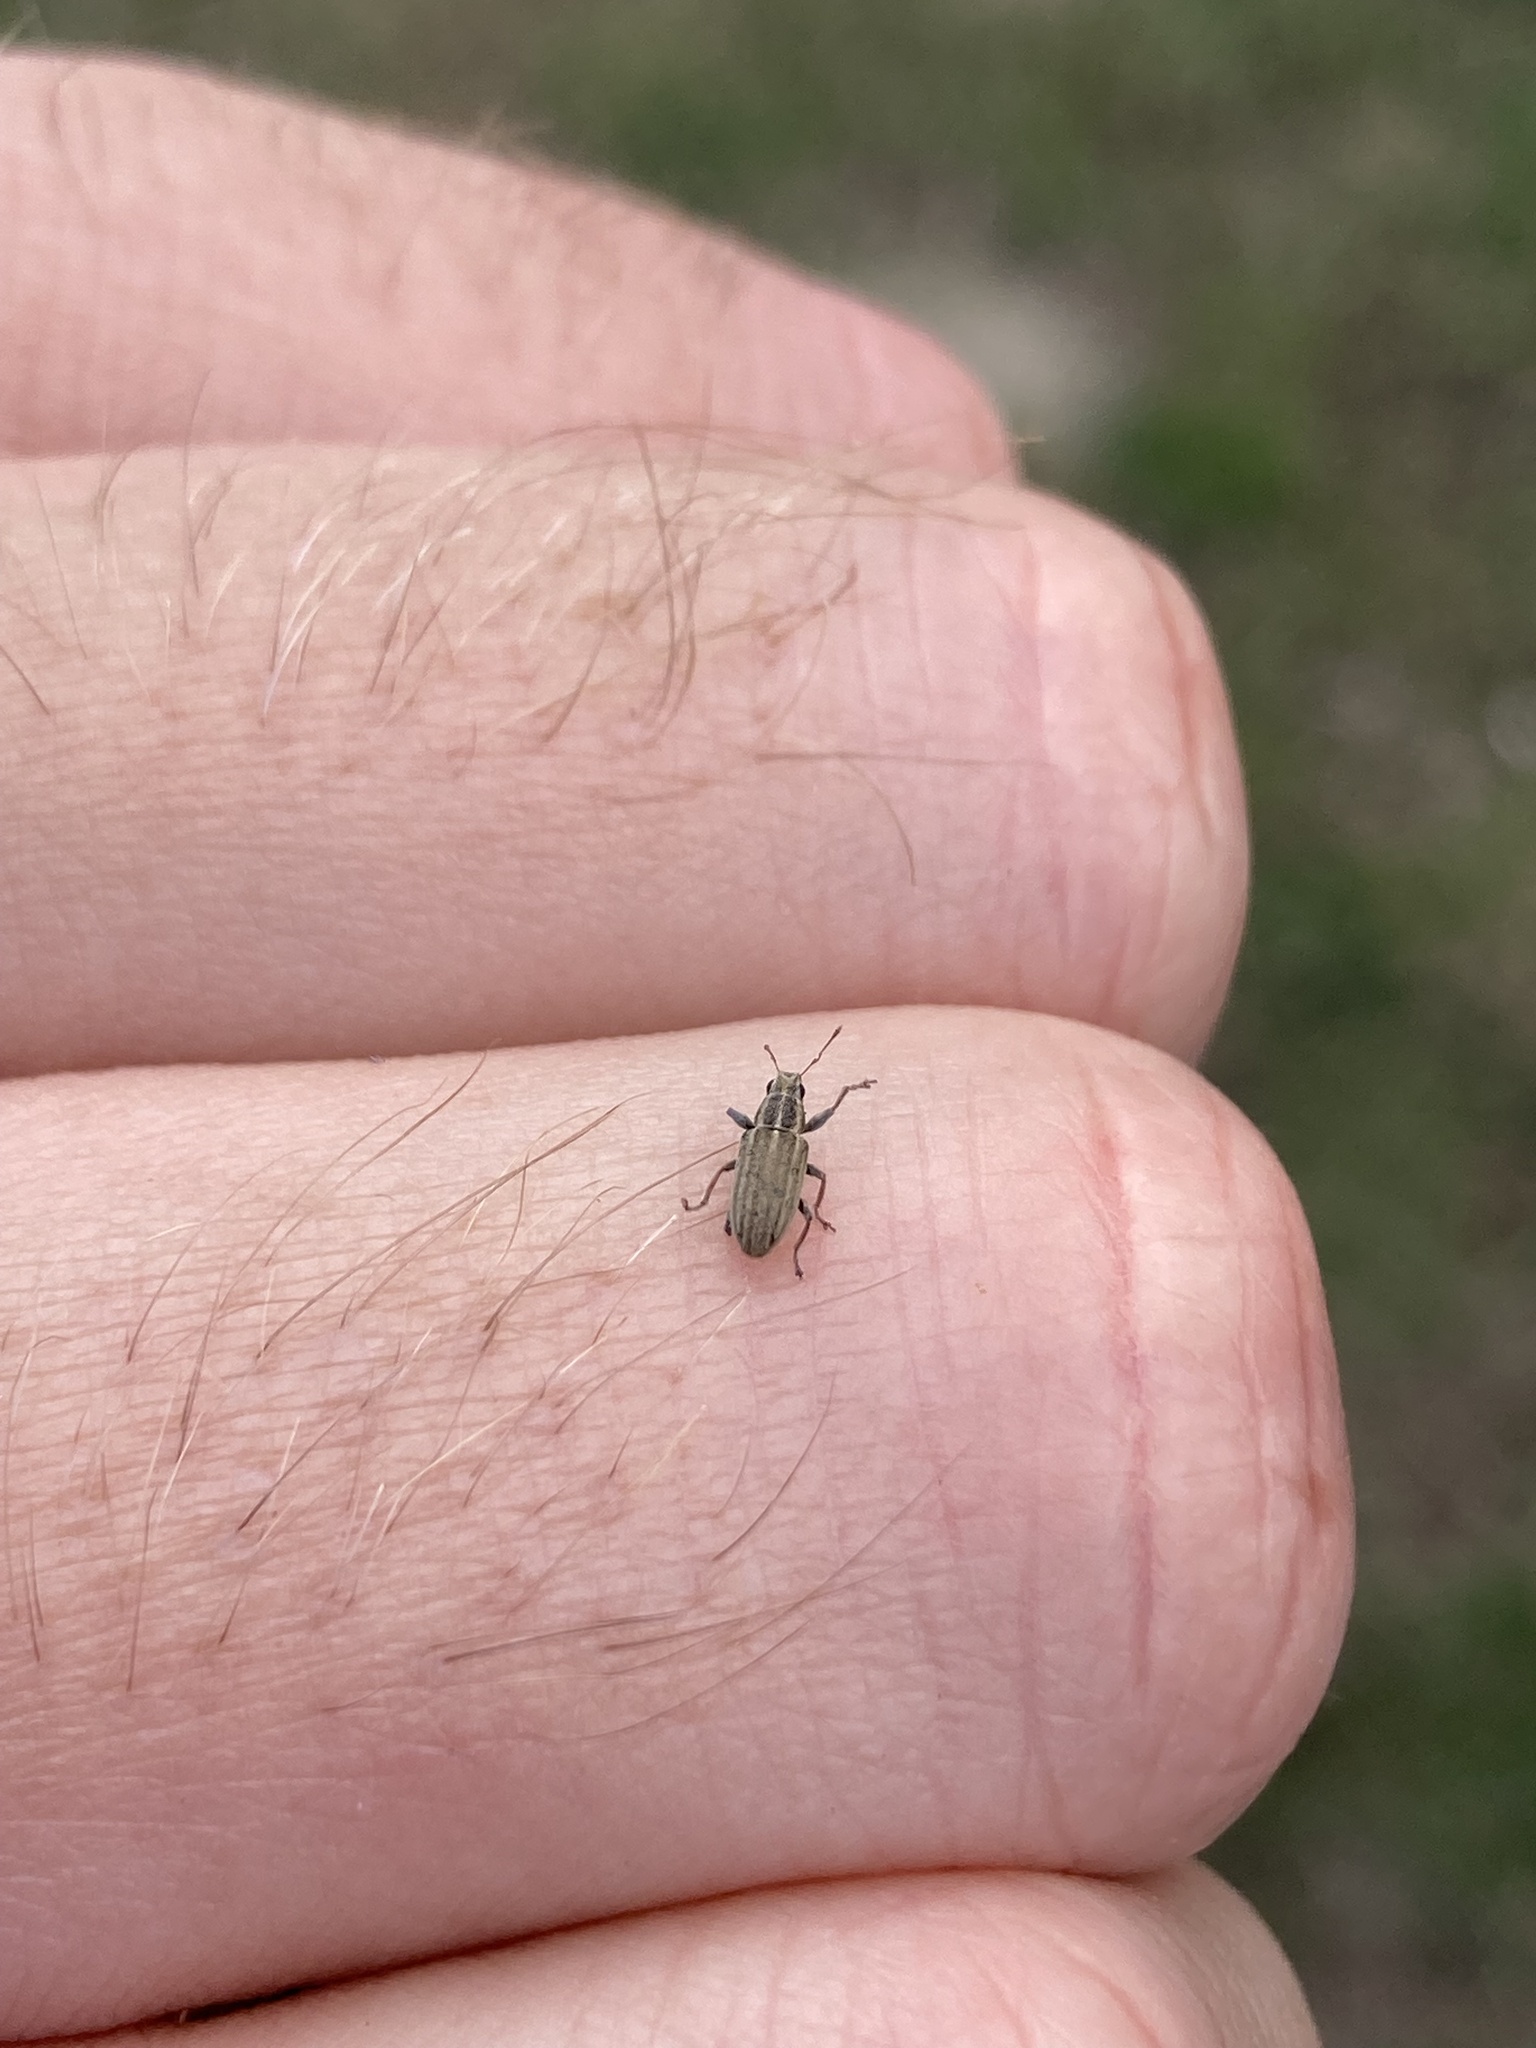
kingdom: Animalia
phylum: Arthropoda
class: Insecta
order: Coleoptera
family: Curculionidae
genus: Sitona
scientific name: Sitona lineatus
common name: Weevil
